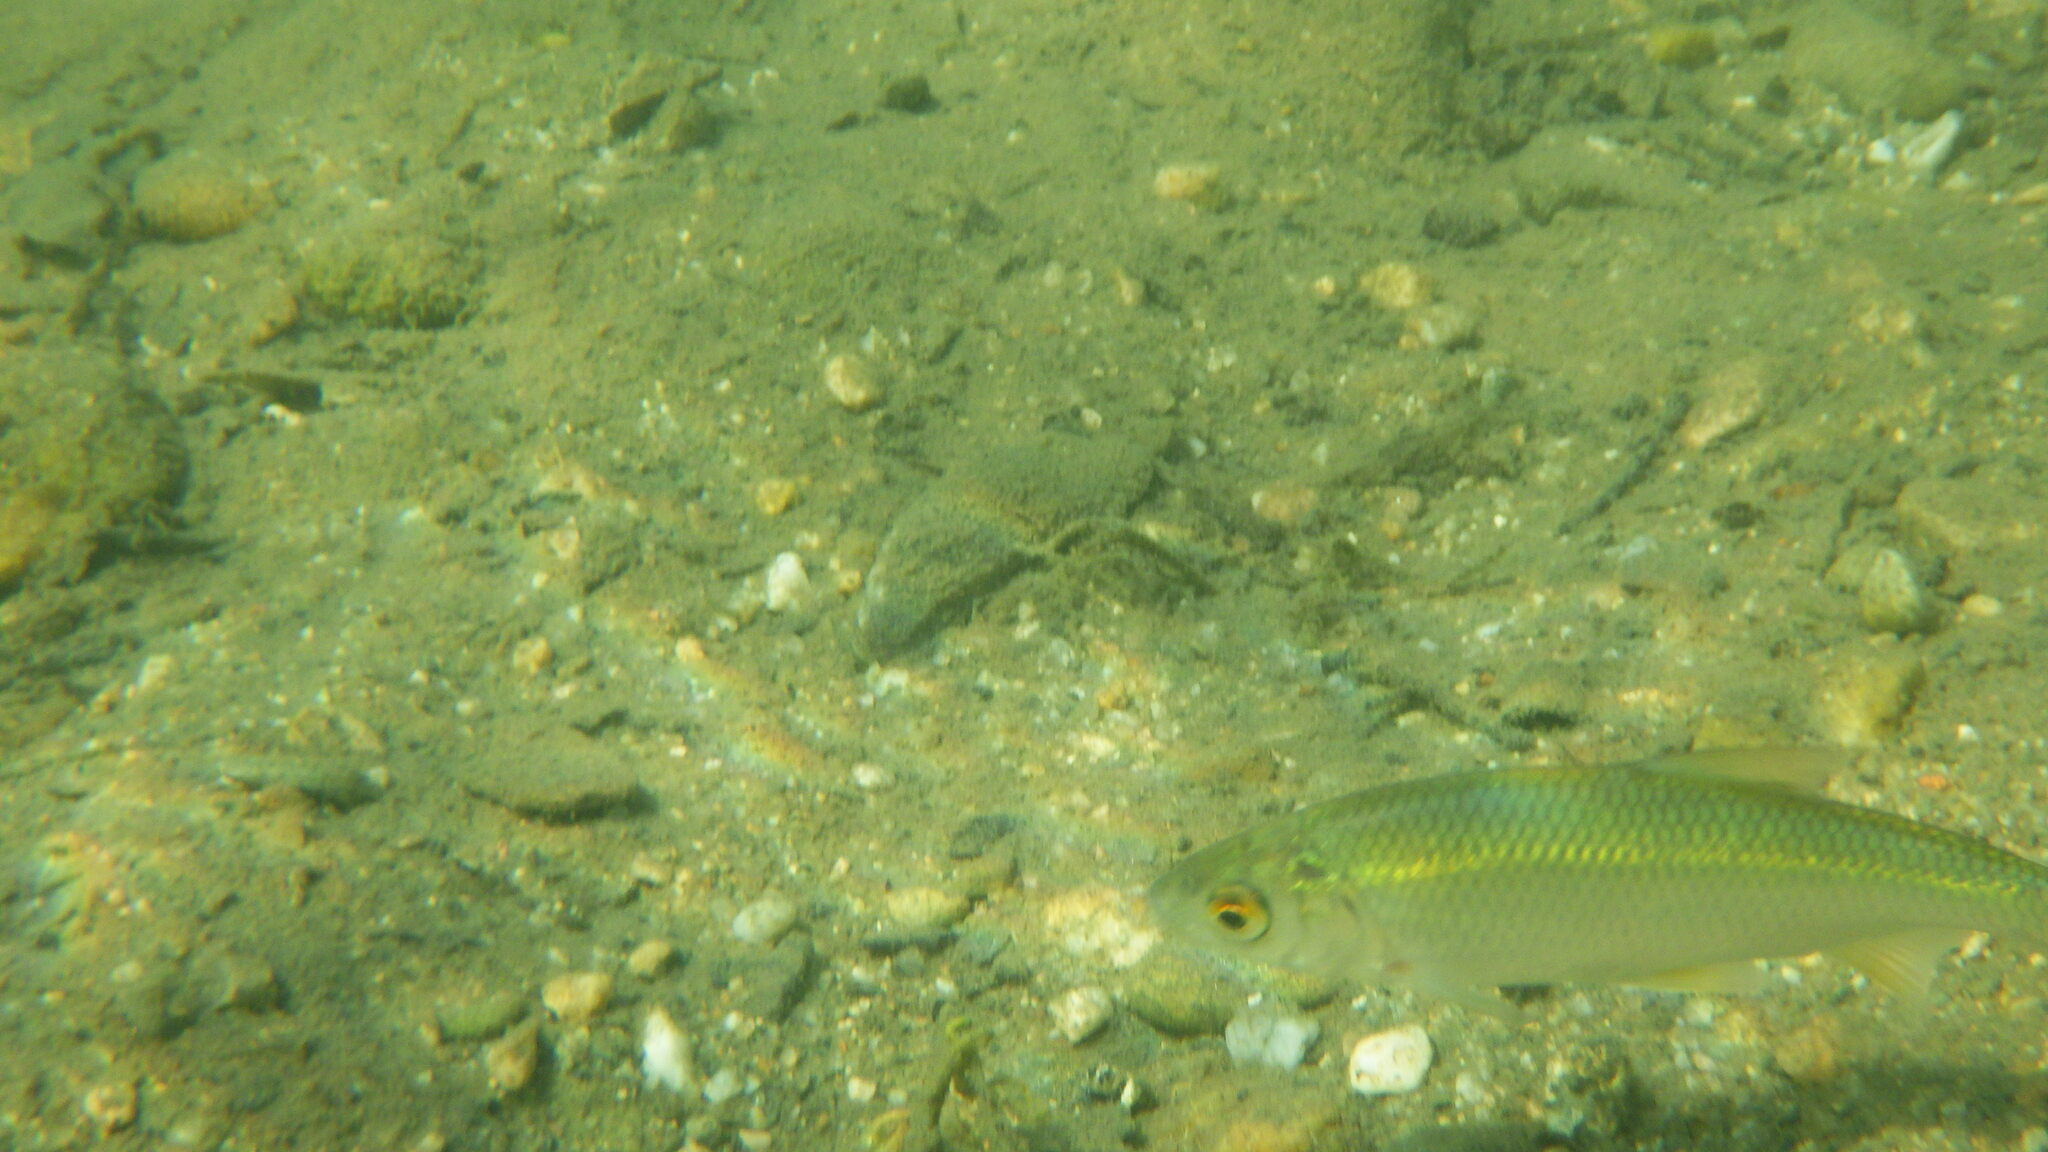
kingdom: Animalia
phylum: Chordata
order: Cypriniformes
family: Cyprinidae
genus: Rutilus
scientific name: Rutilus rutilus
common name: Roach
